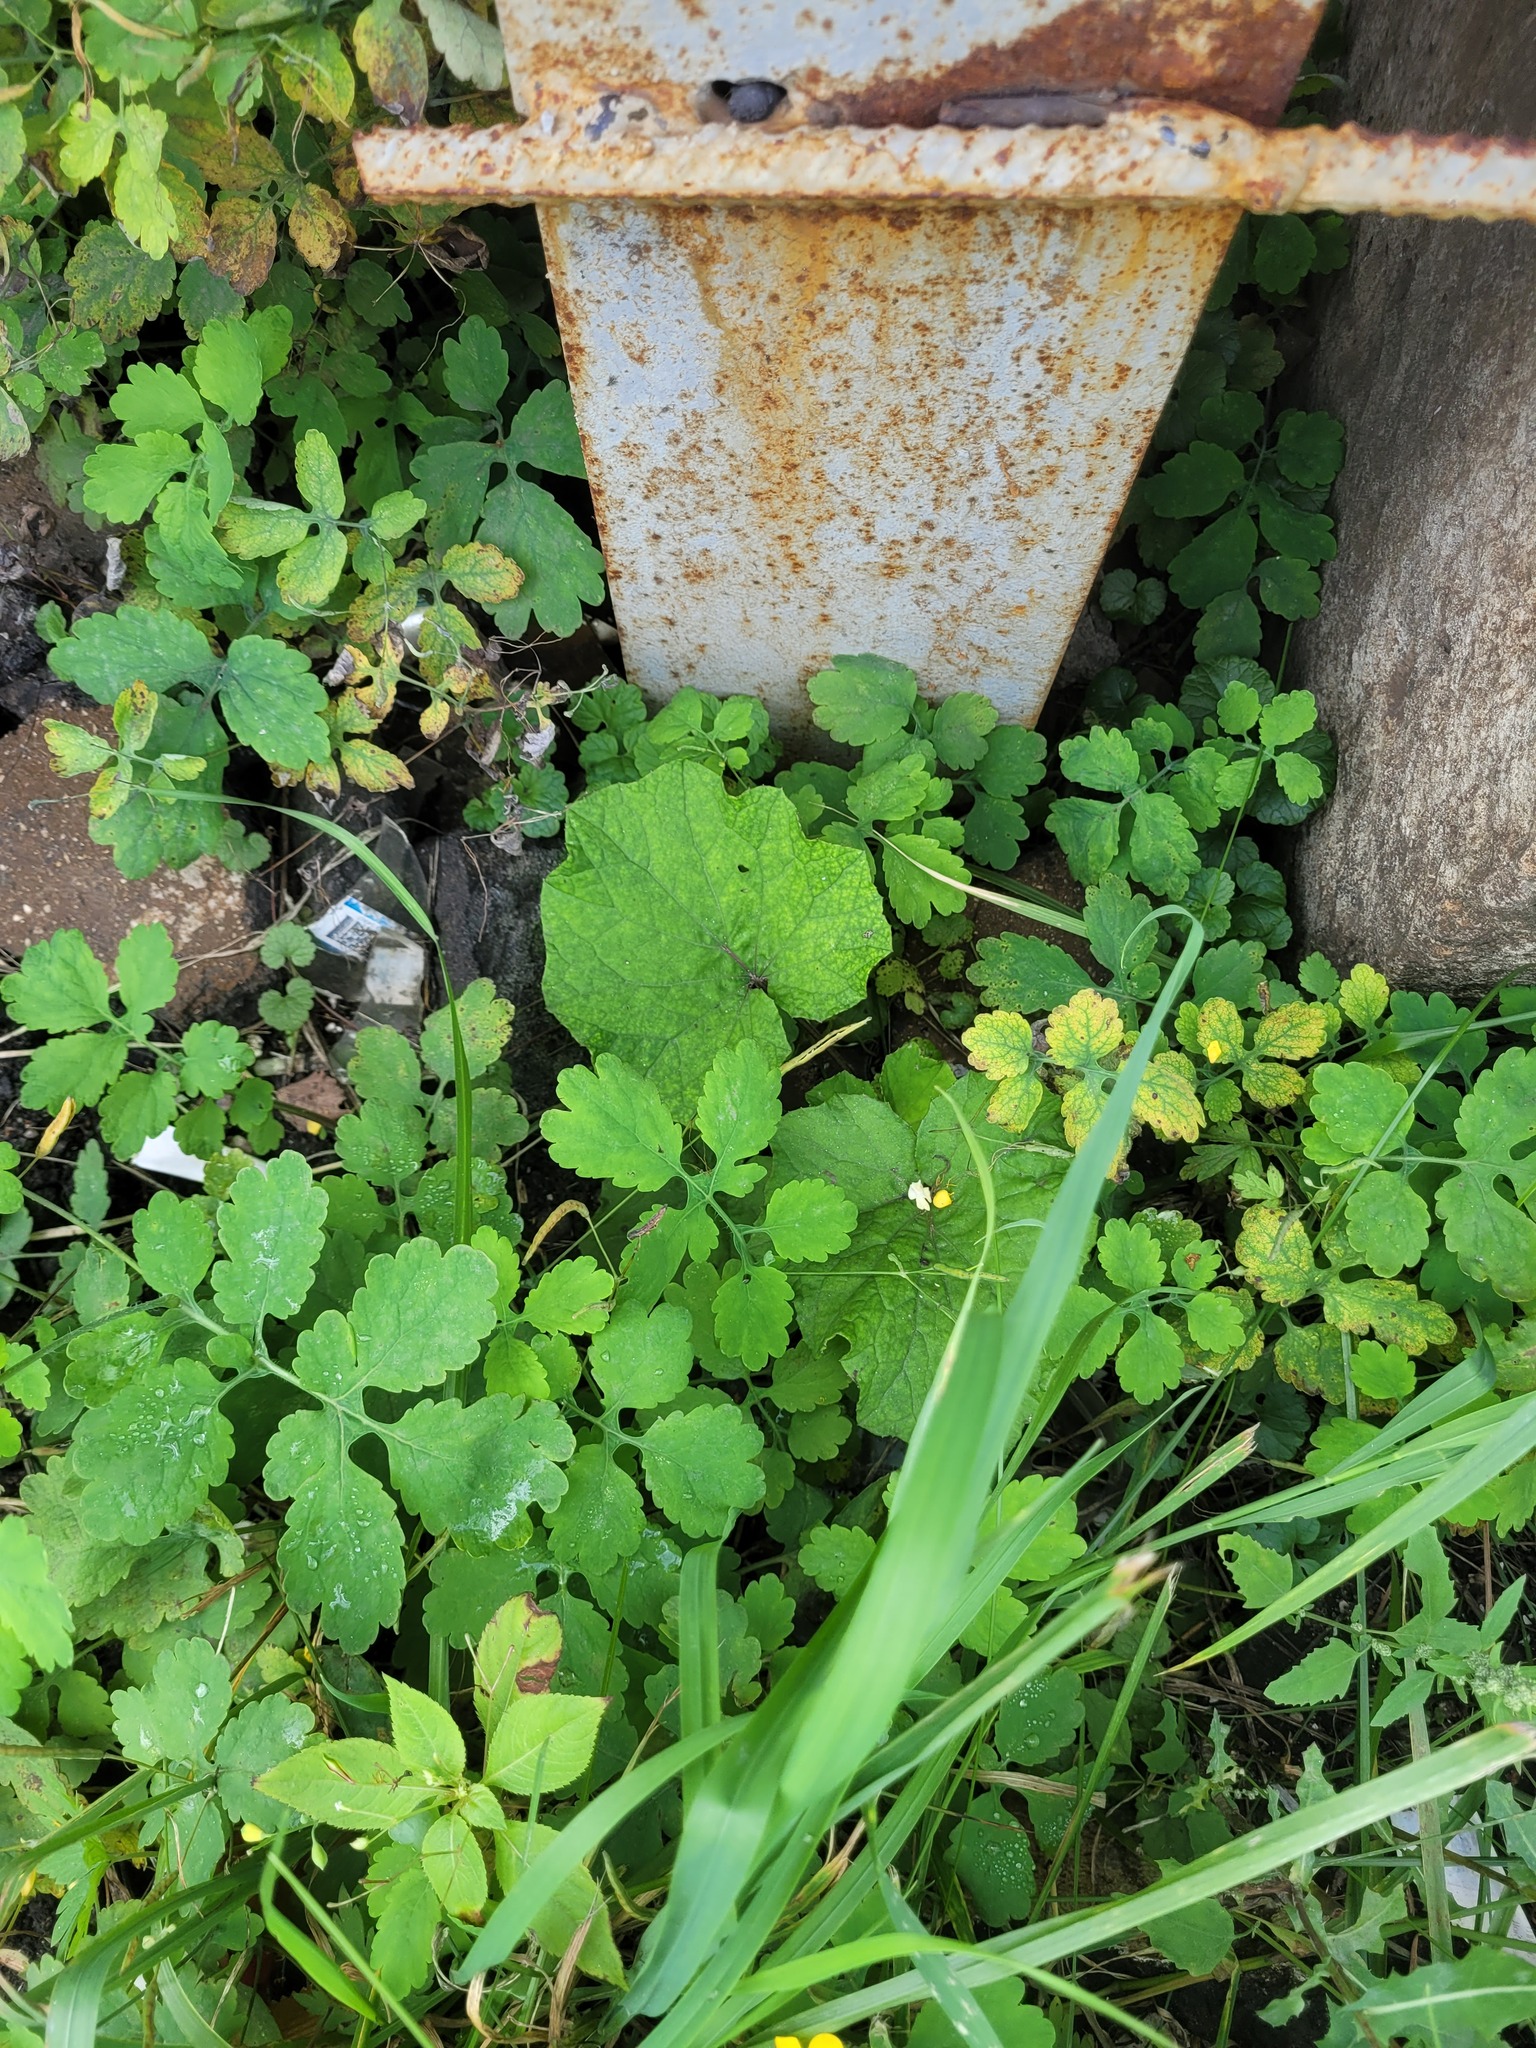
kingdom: Plantae
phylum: Tracheophyta
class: Magnoliopsida
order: Asterales
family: Asteraceae
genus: Tussilago
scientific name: Tussilago farfara
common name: Coltsfoot
